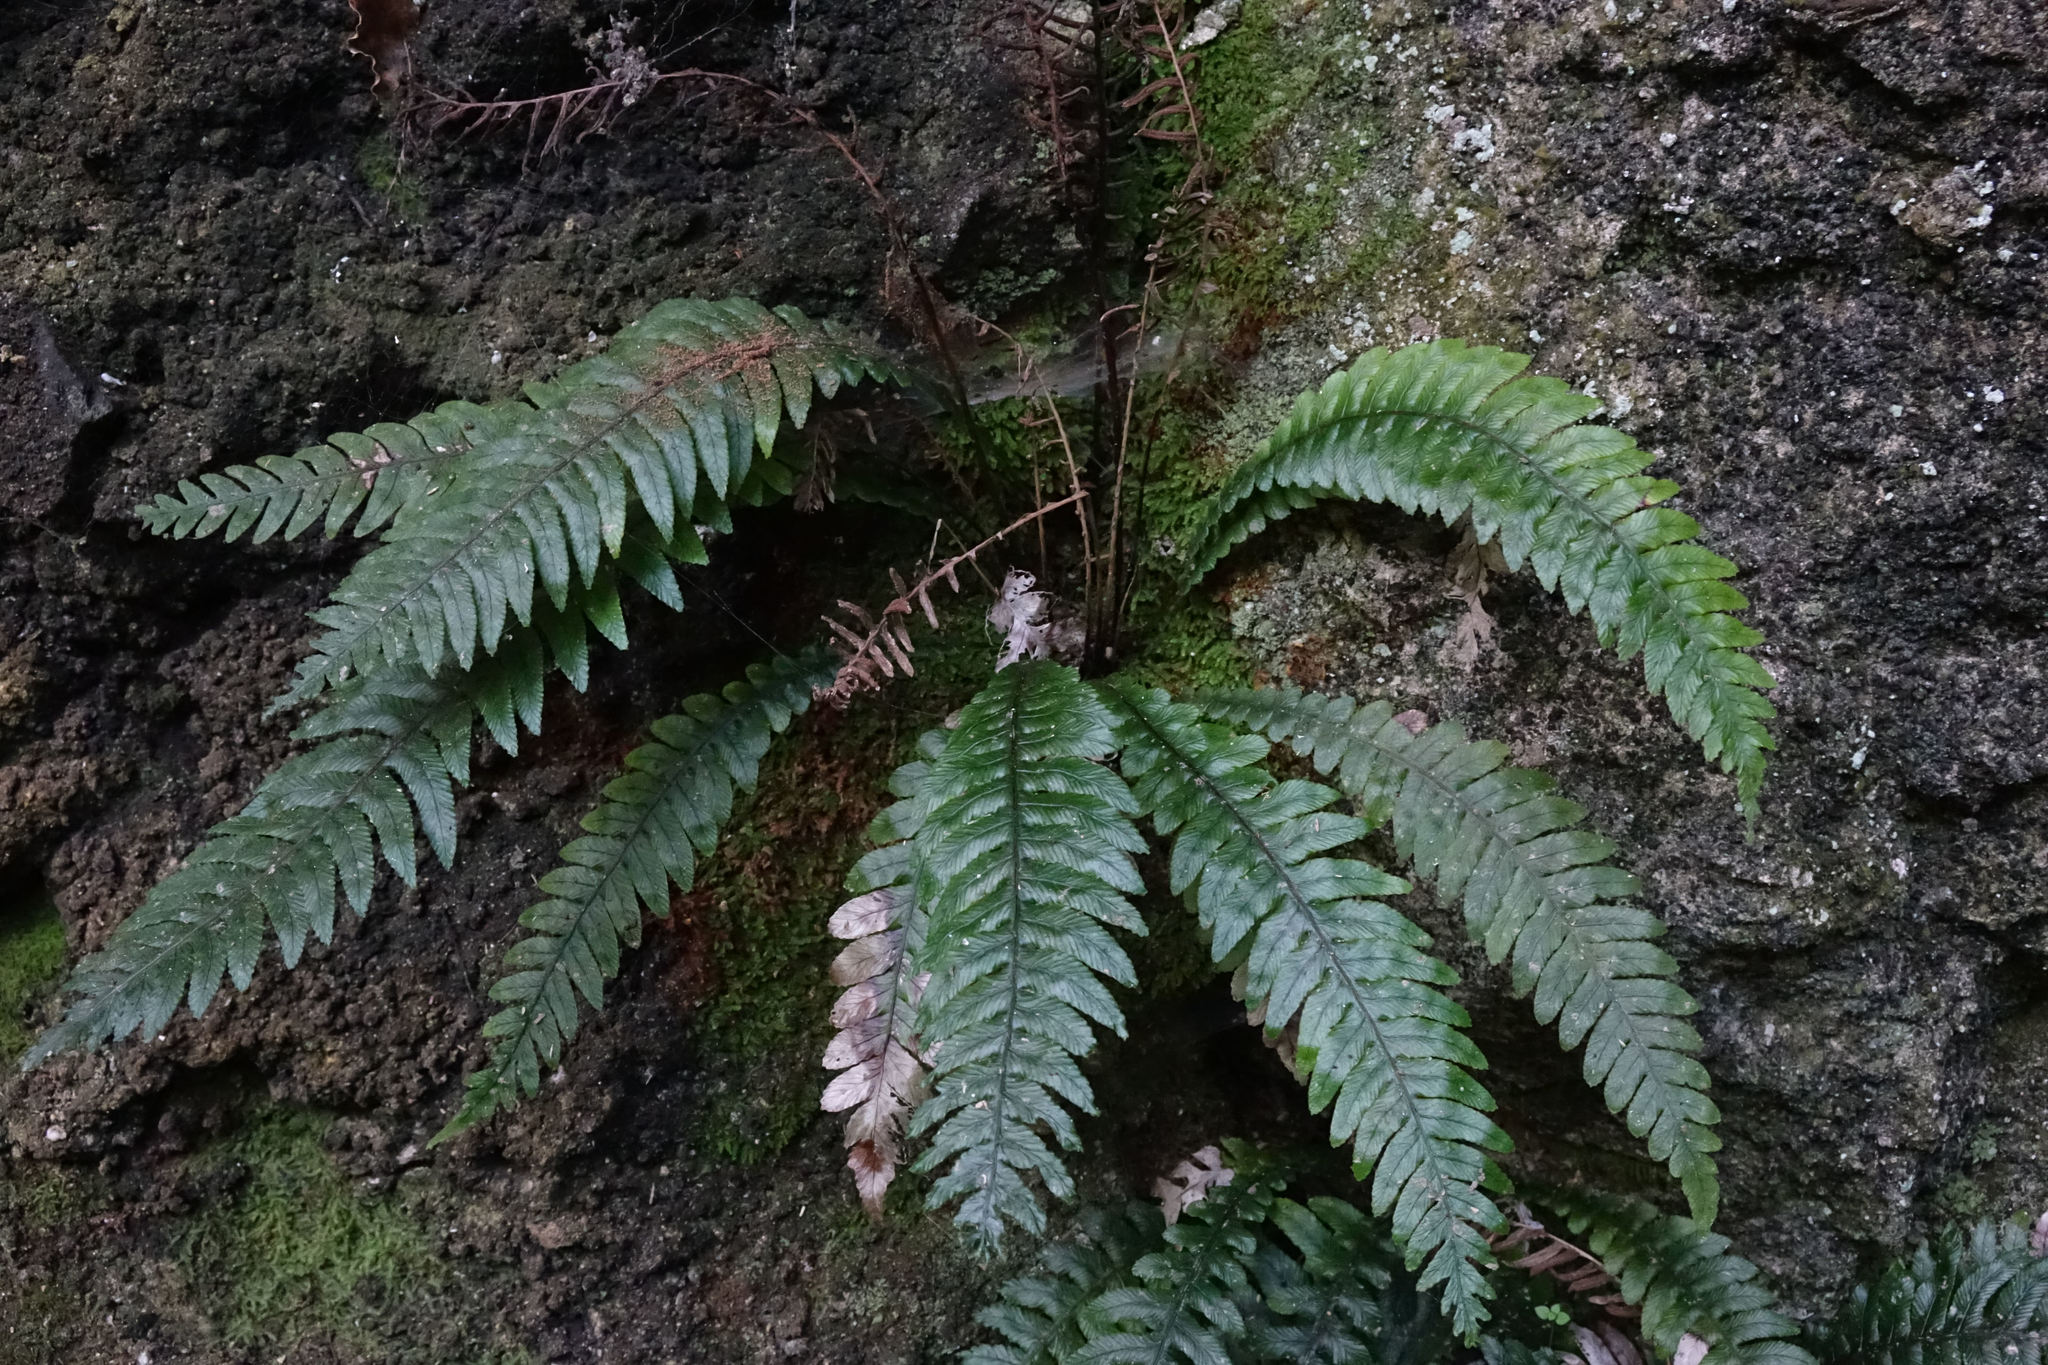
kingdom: Plantae
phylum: Tracheophyta
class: Polypodiopsida
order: Polypodiales
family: Blechnaceae
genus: Austroblechnum
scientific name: Austroblechnum lanceolatum
